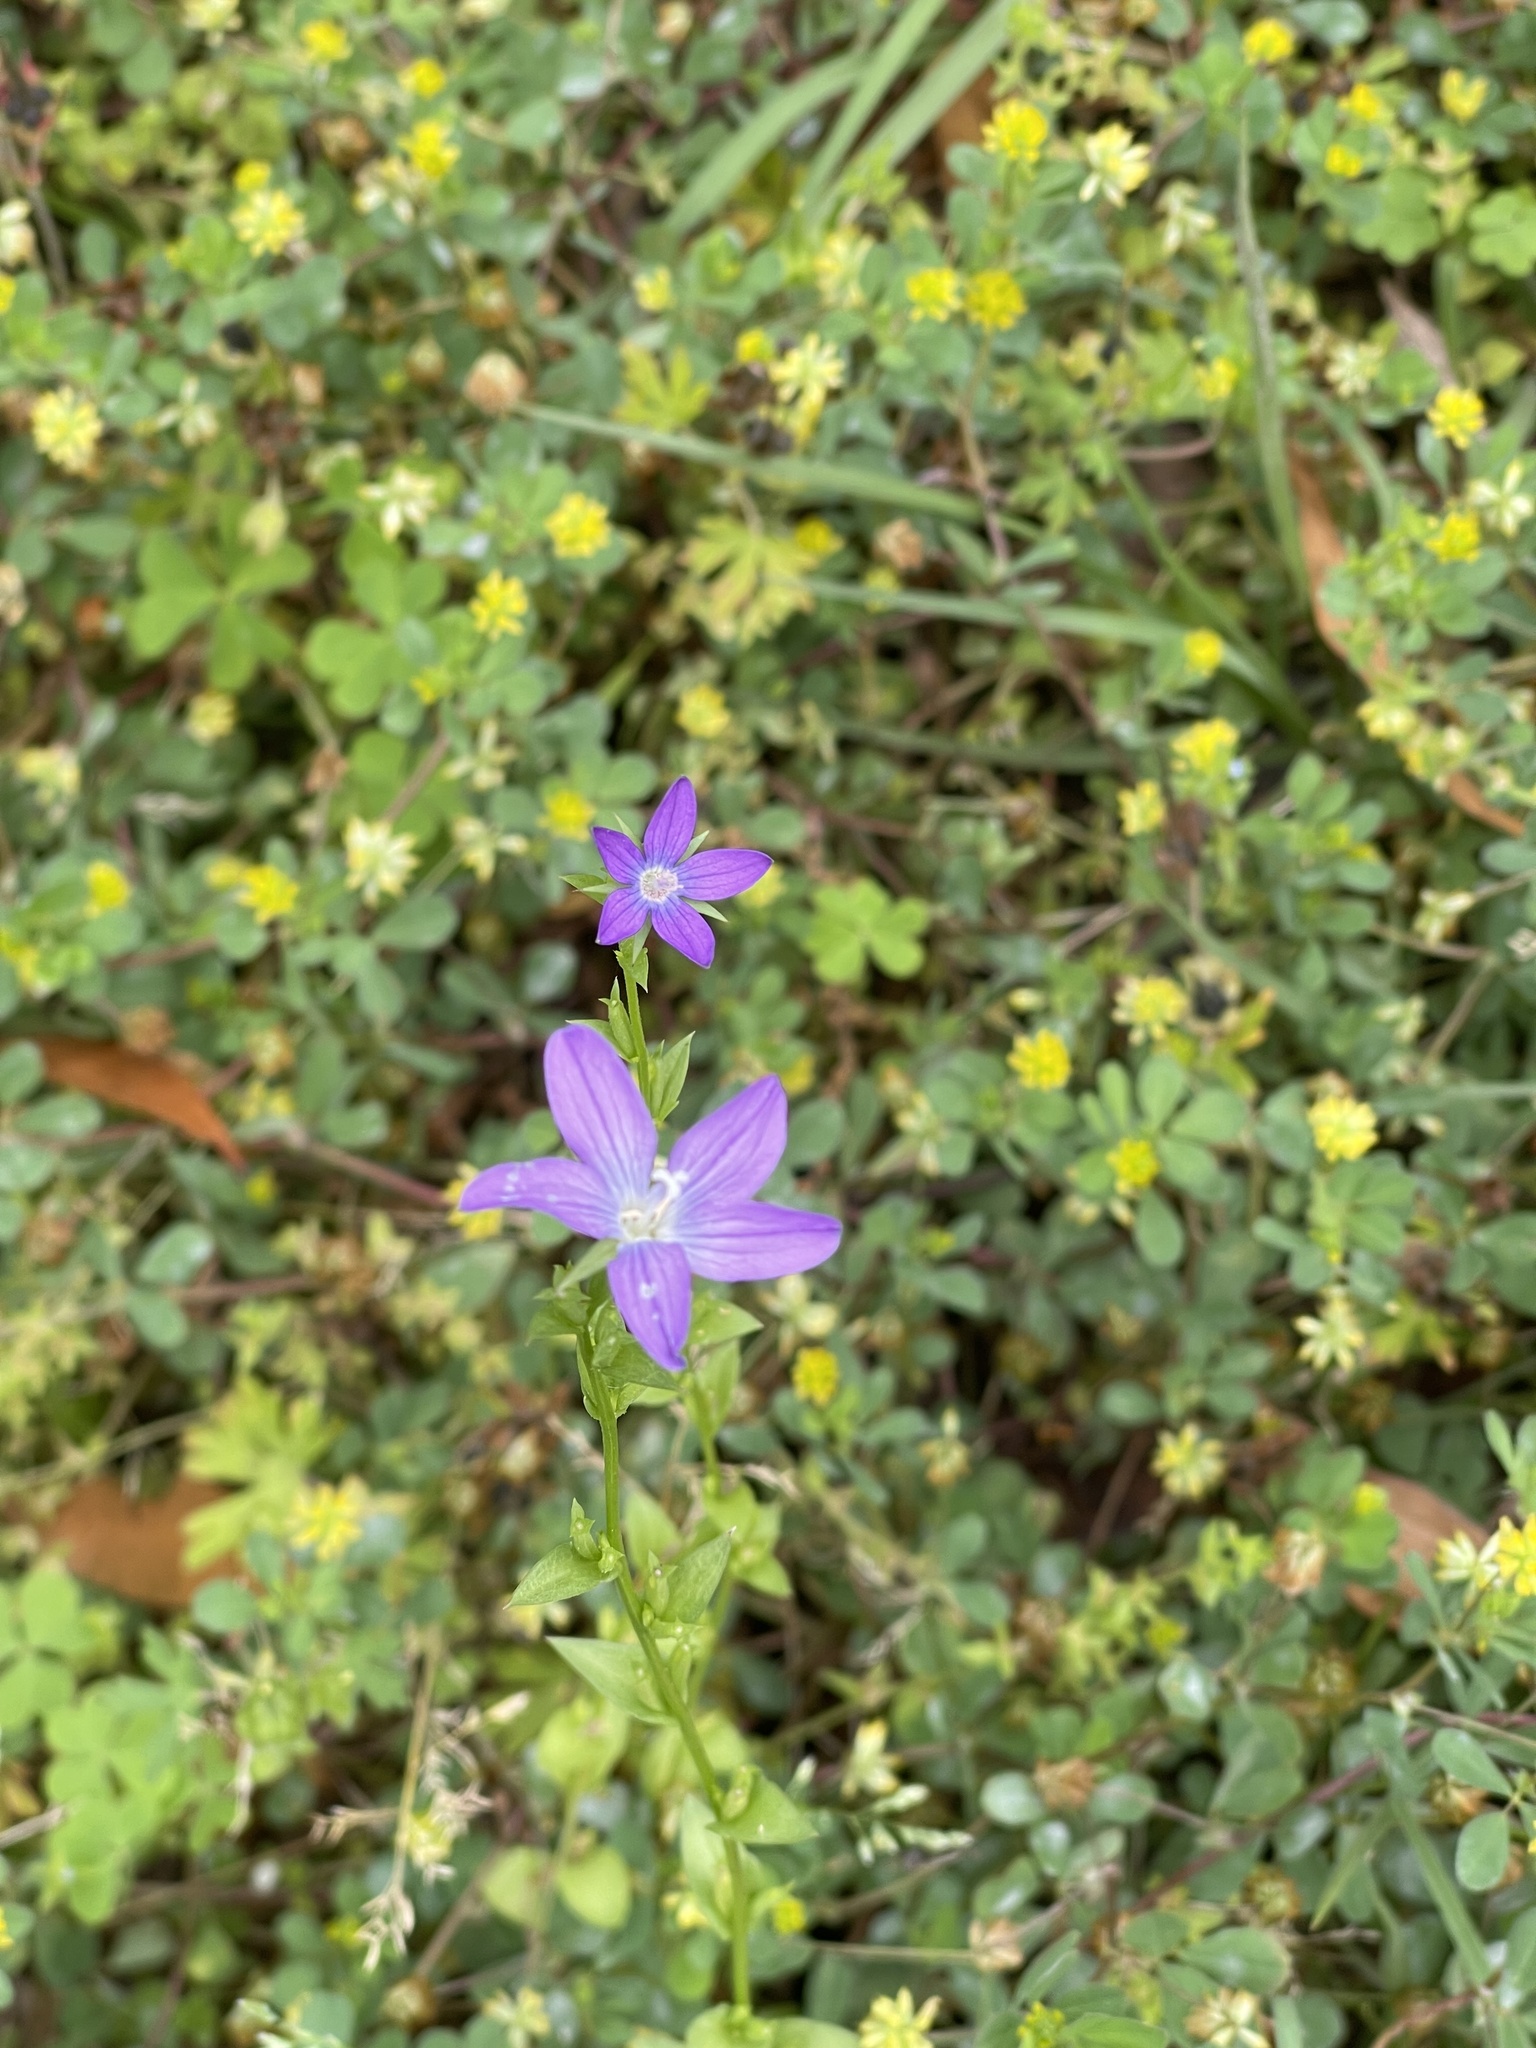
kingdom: Plantae
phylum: Tracheophyta
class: Magnoliopsida
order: Asterales
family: Campanulaceae
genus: Triodanis
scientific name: Triodanis biflora
